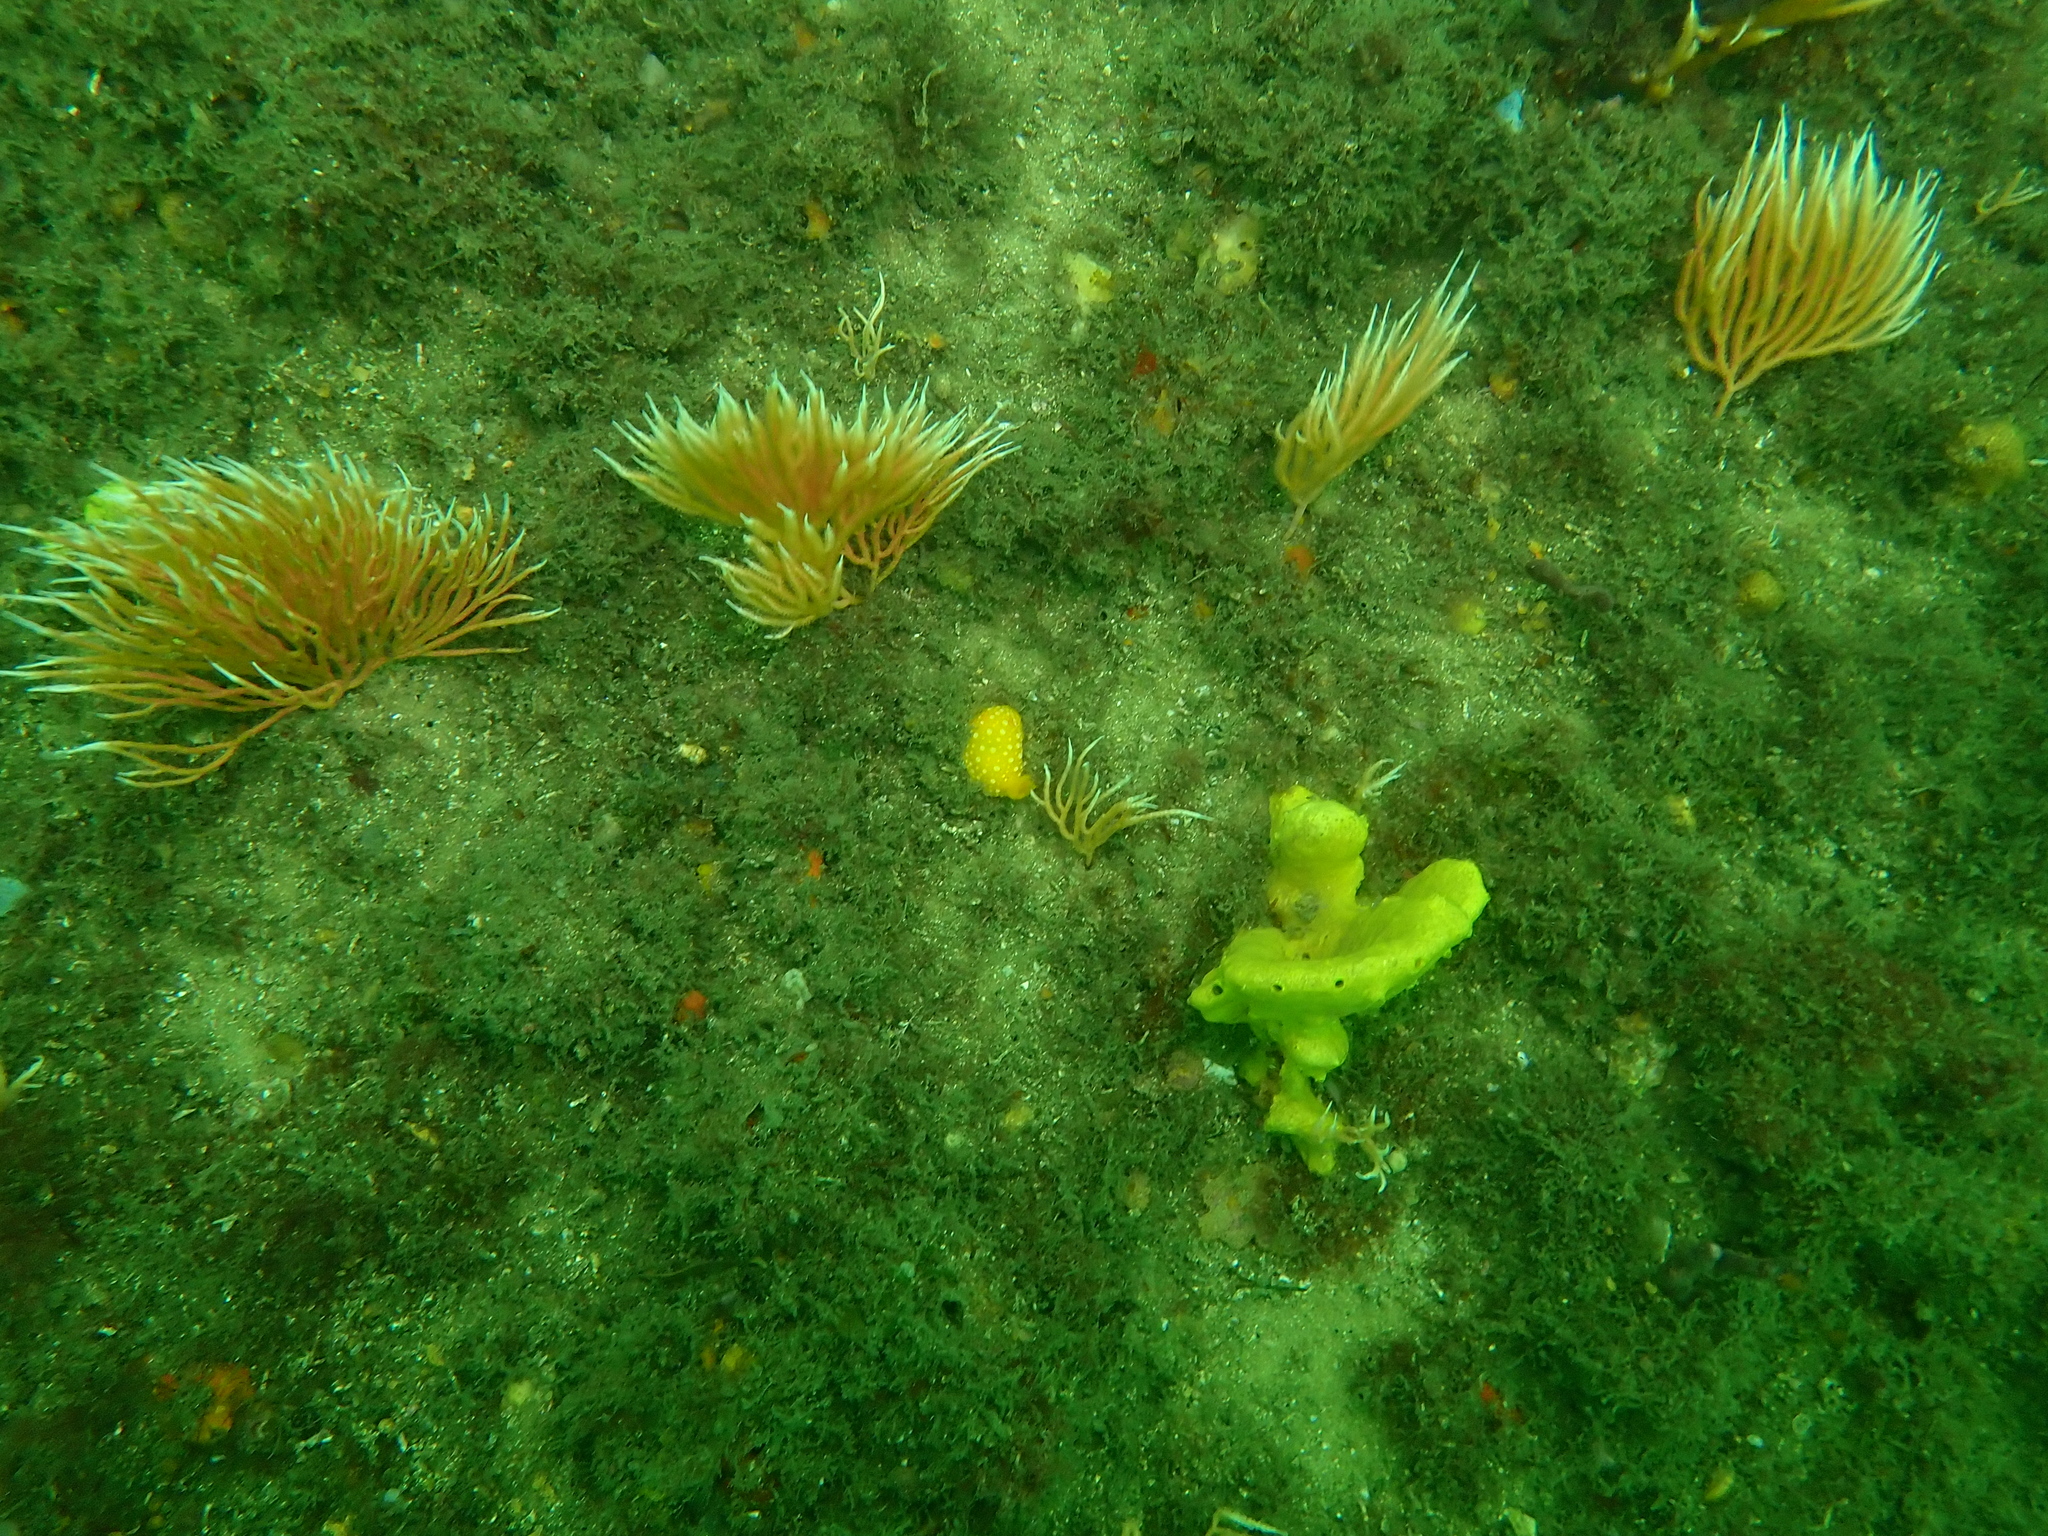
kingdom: Animalia
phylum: Cnidaria
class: Anthozoa
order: Scleralcyonacea
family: Mopseidae
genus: Sphaerokodisis
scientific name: Sphaerokodisis australis
